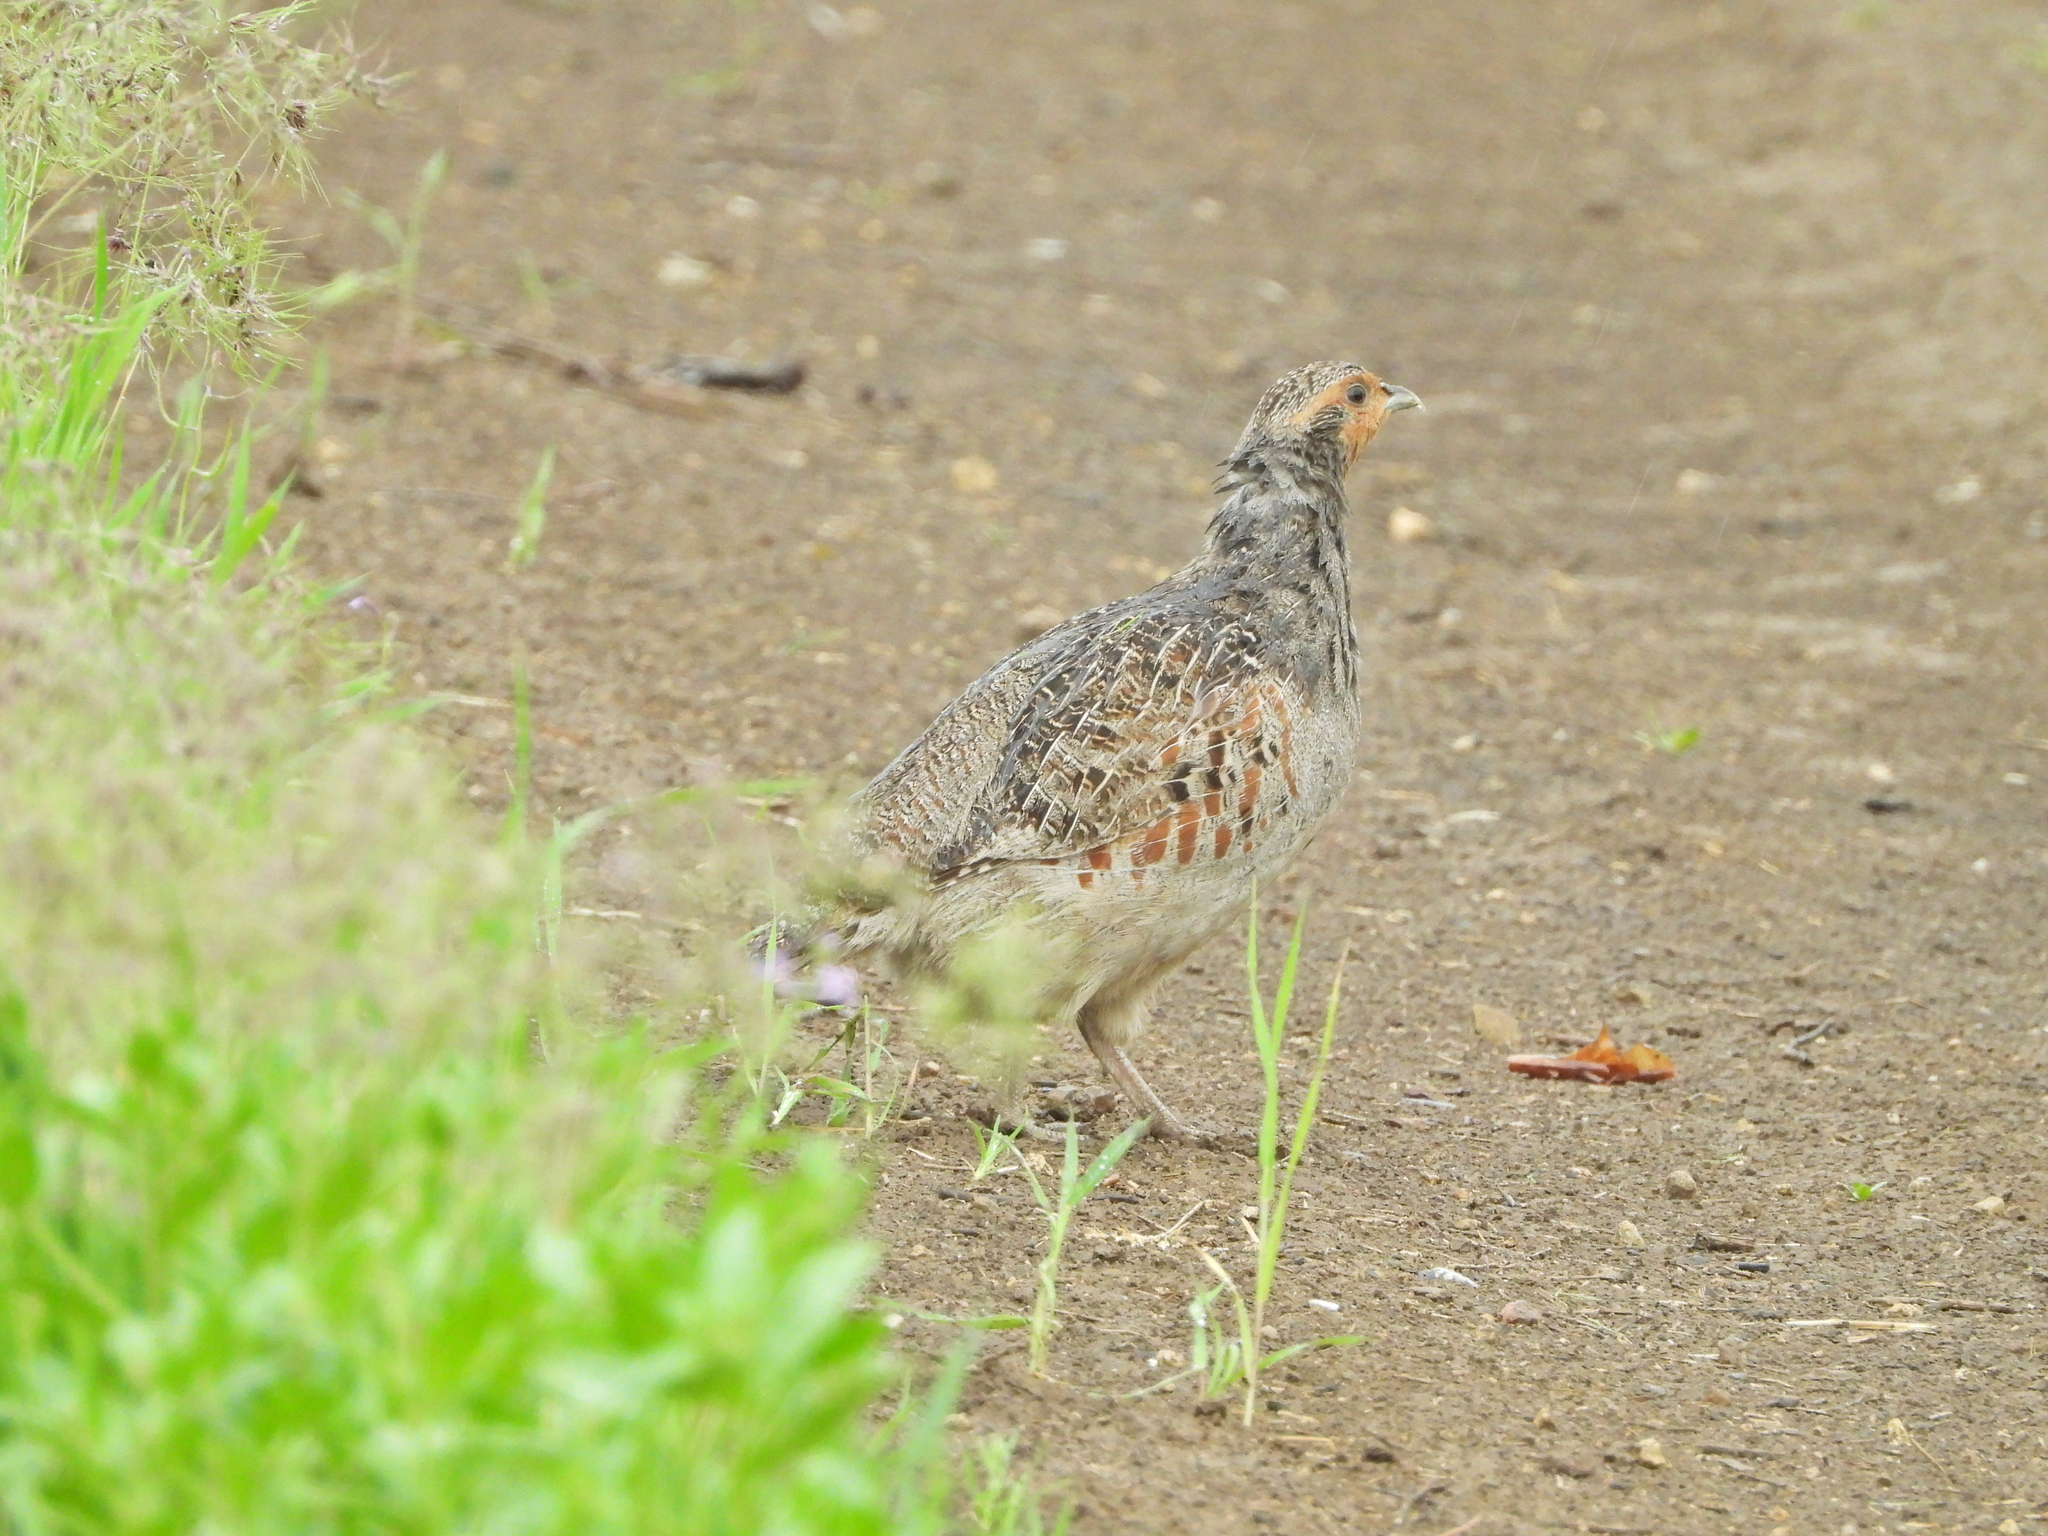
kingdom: Animalia
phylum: Chordata
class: Aves
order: Galliformes
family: Phasianidae
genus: Perdix
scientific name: Perdix perdix
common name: Grey partridge
